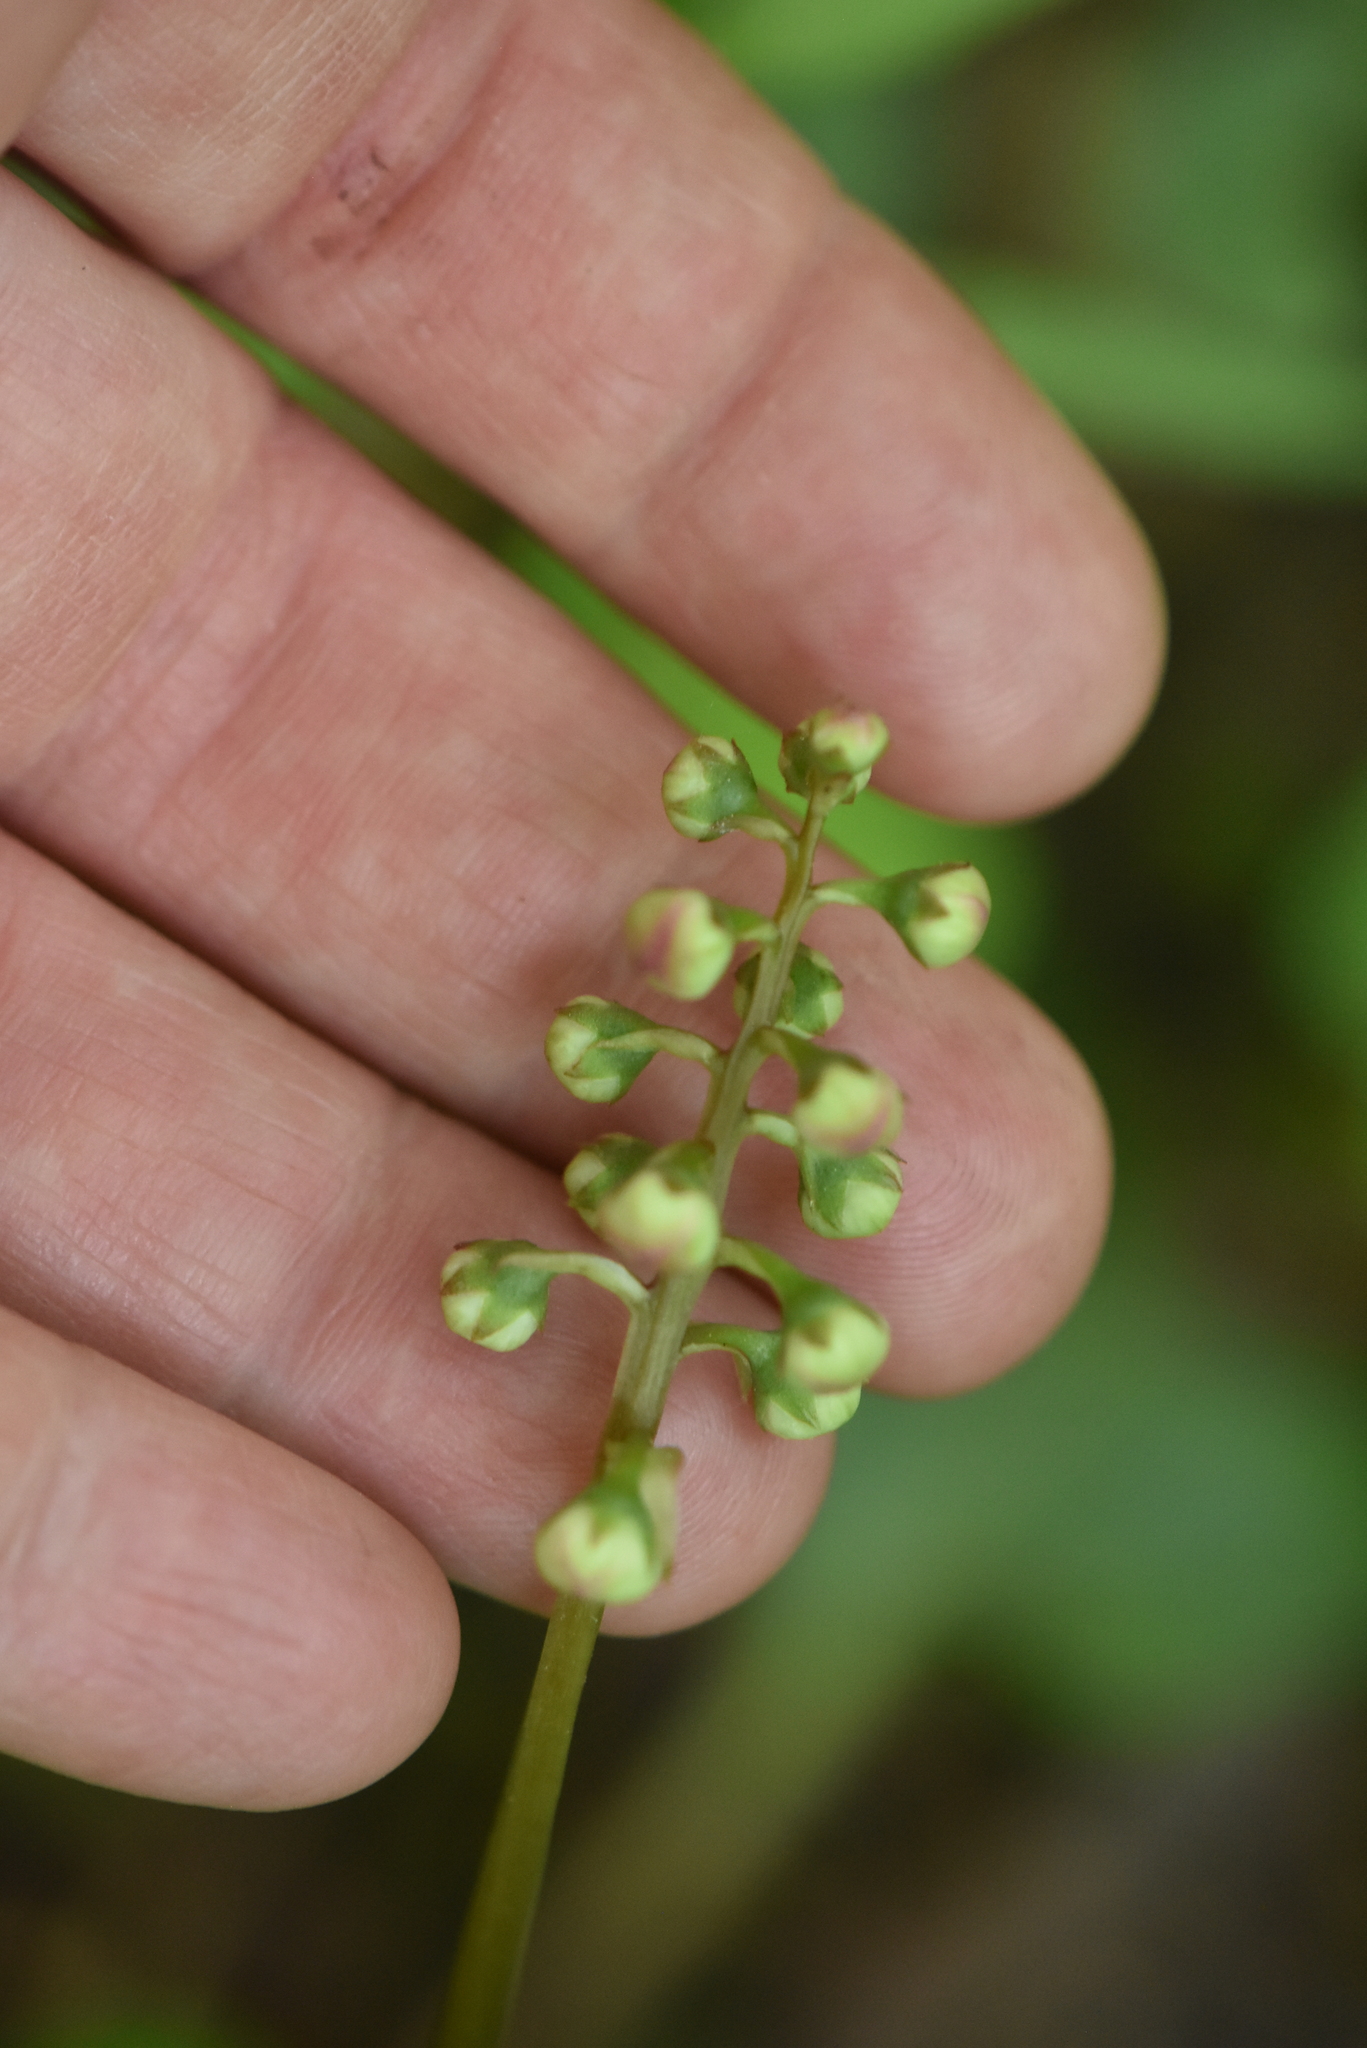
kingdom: Plantae
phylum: Tracheophyta
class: Magnoliopsida
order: Ericales
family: Ericaceae
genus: Pyrola
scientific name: Pyrola minor
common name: Common wintergreen
